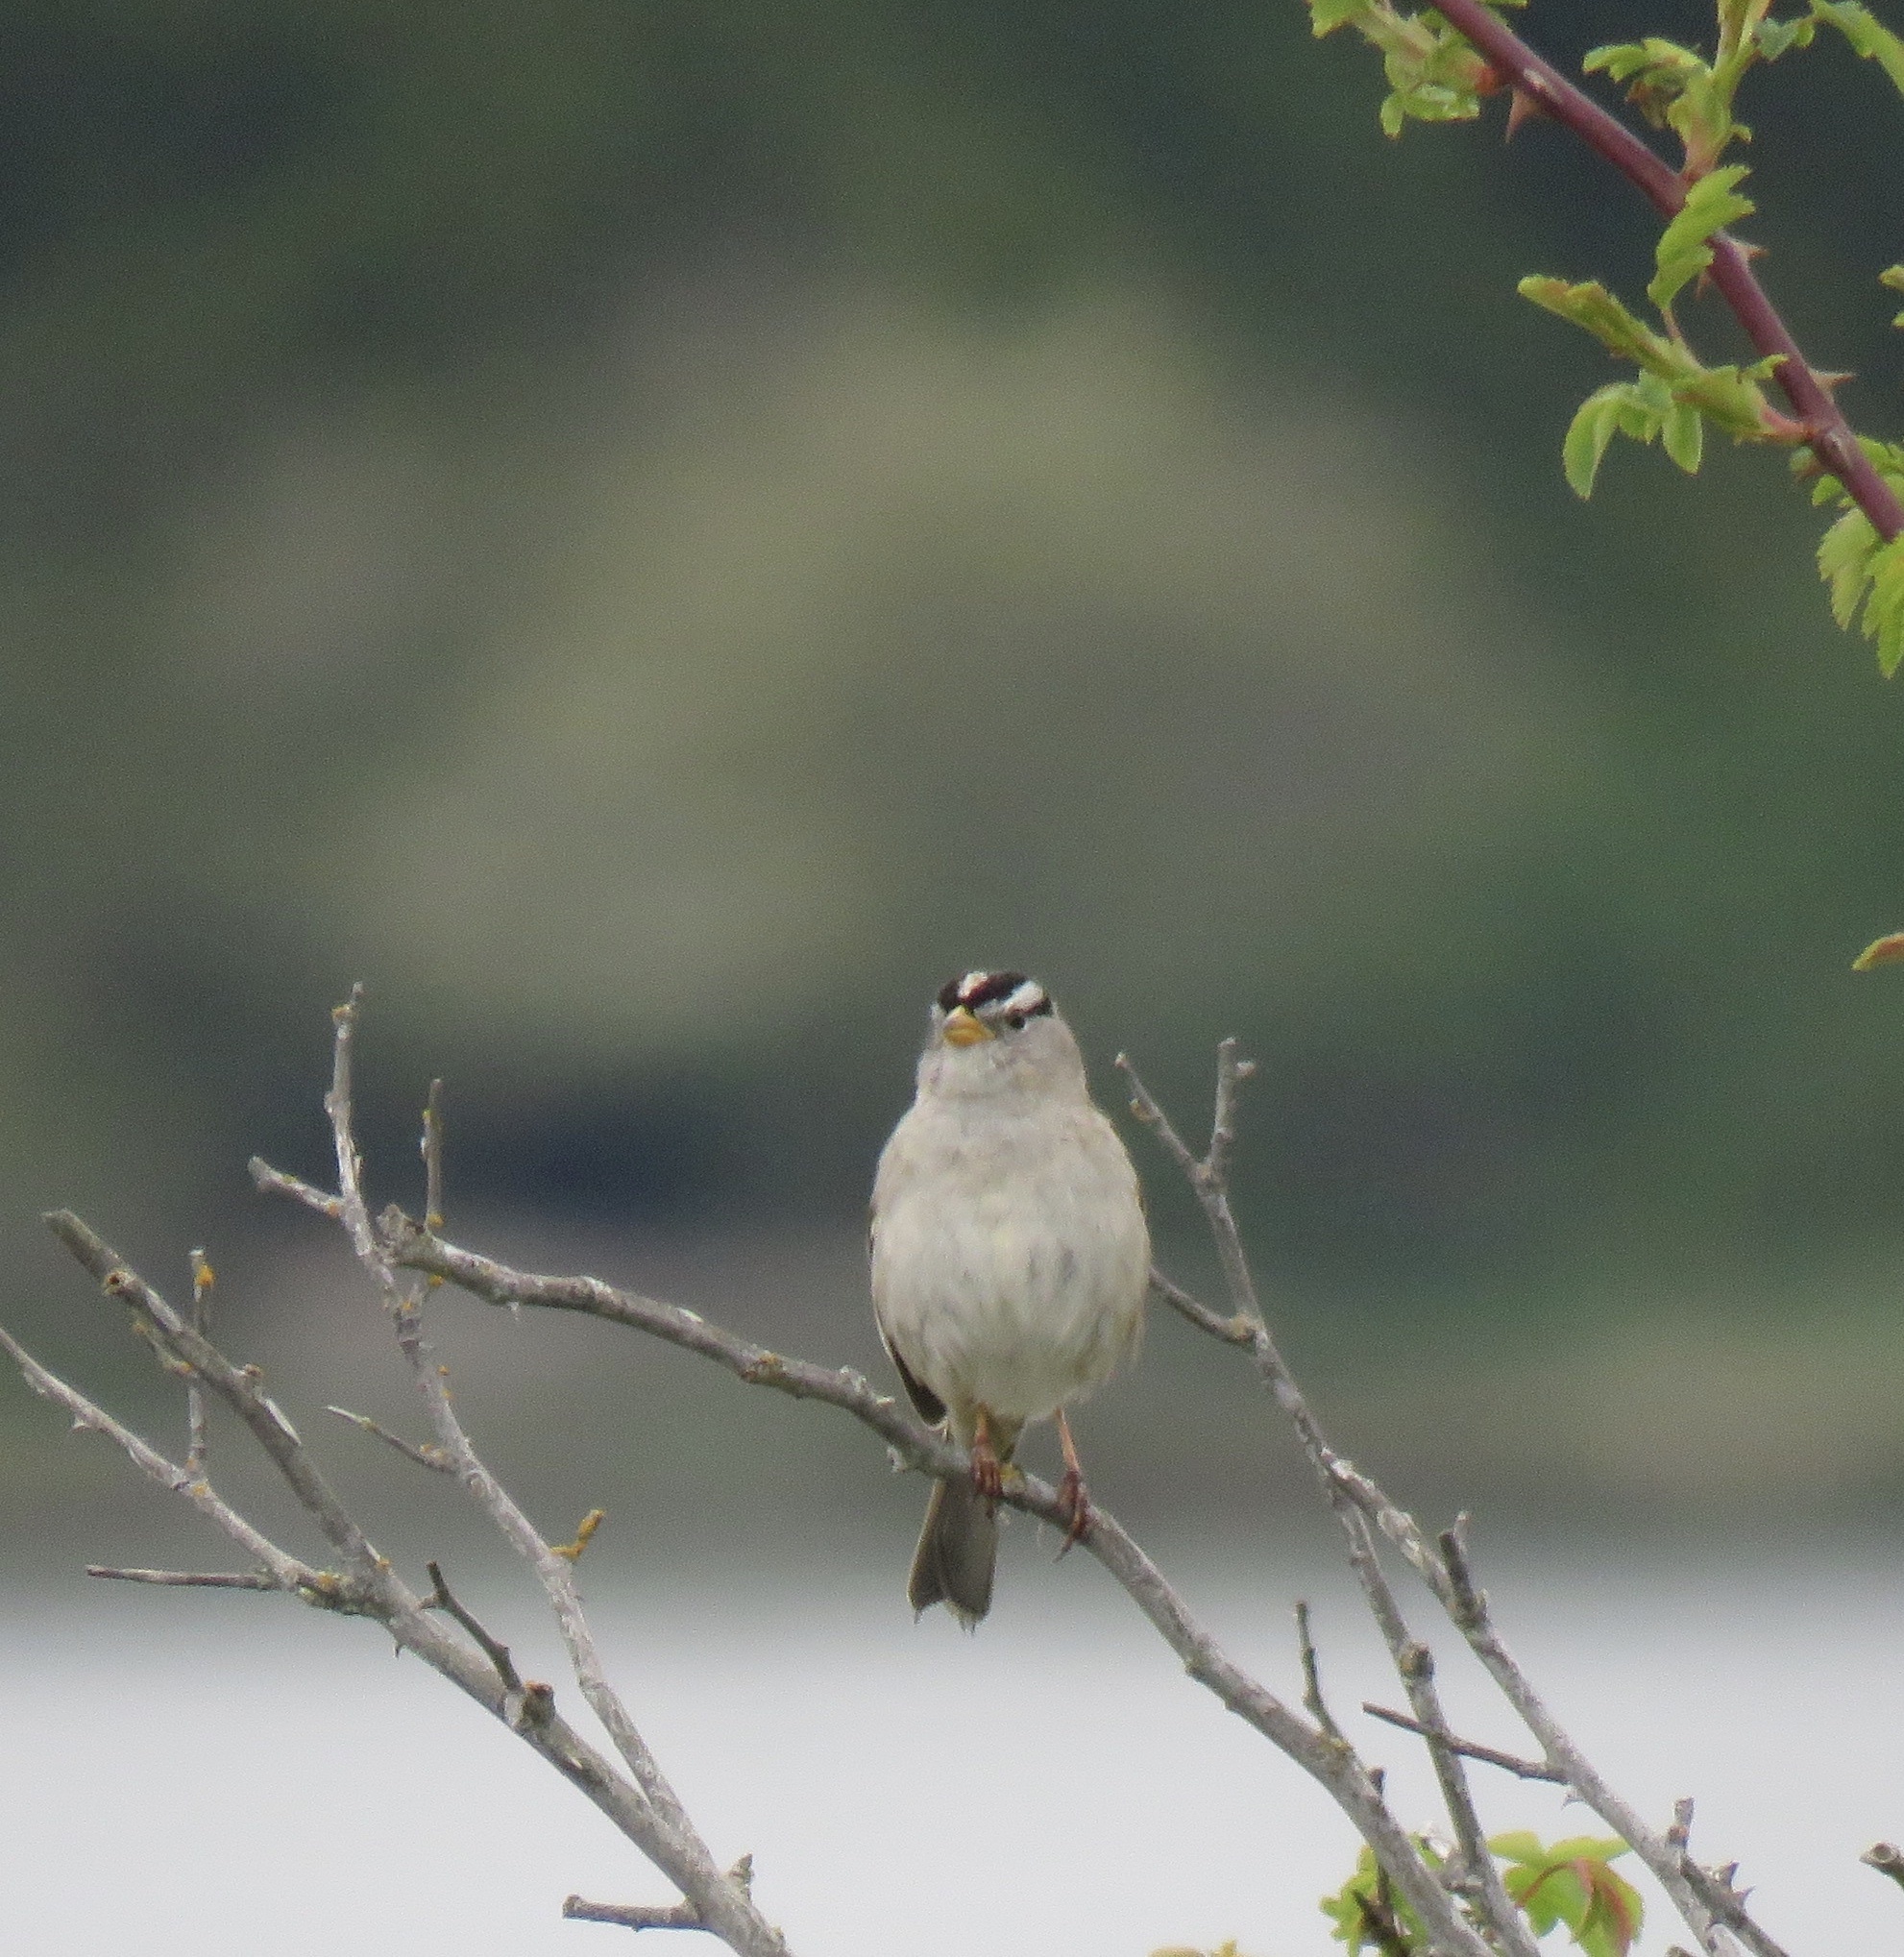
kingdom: Animalia
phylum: Chordata
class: Aves
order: Passeriformes
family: Passerellidae
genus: Zonotrichia
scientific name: Zonotrichia leucophrys
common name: White-crowned sparrow
